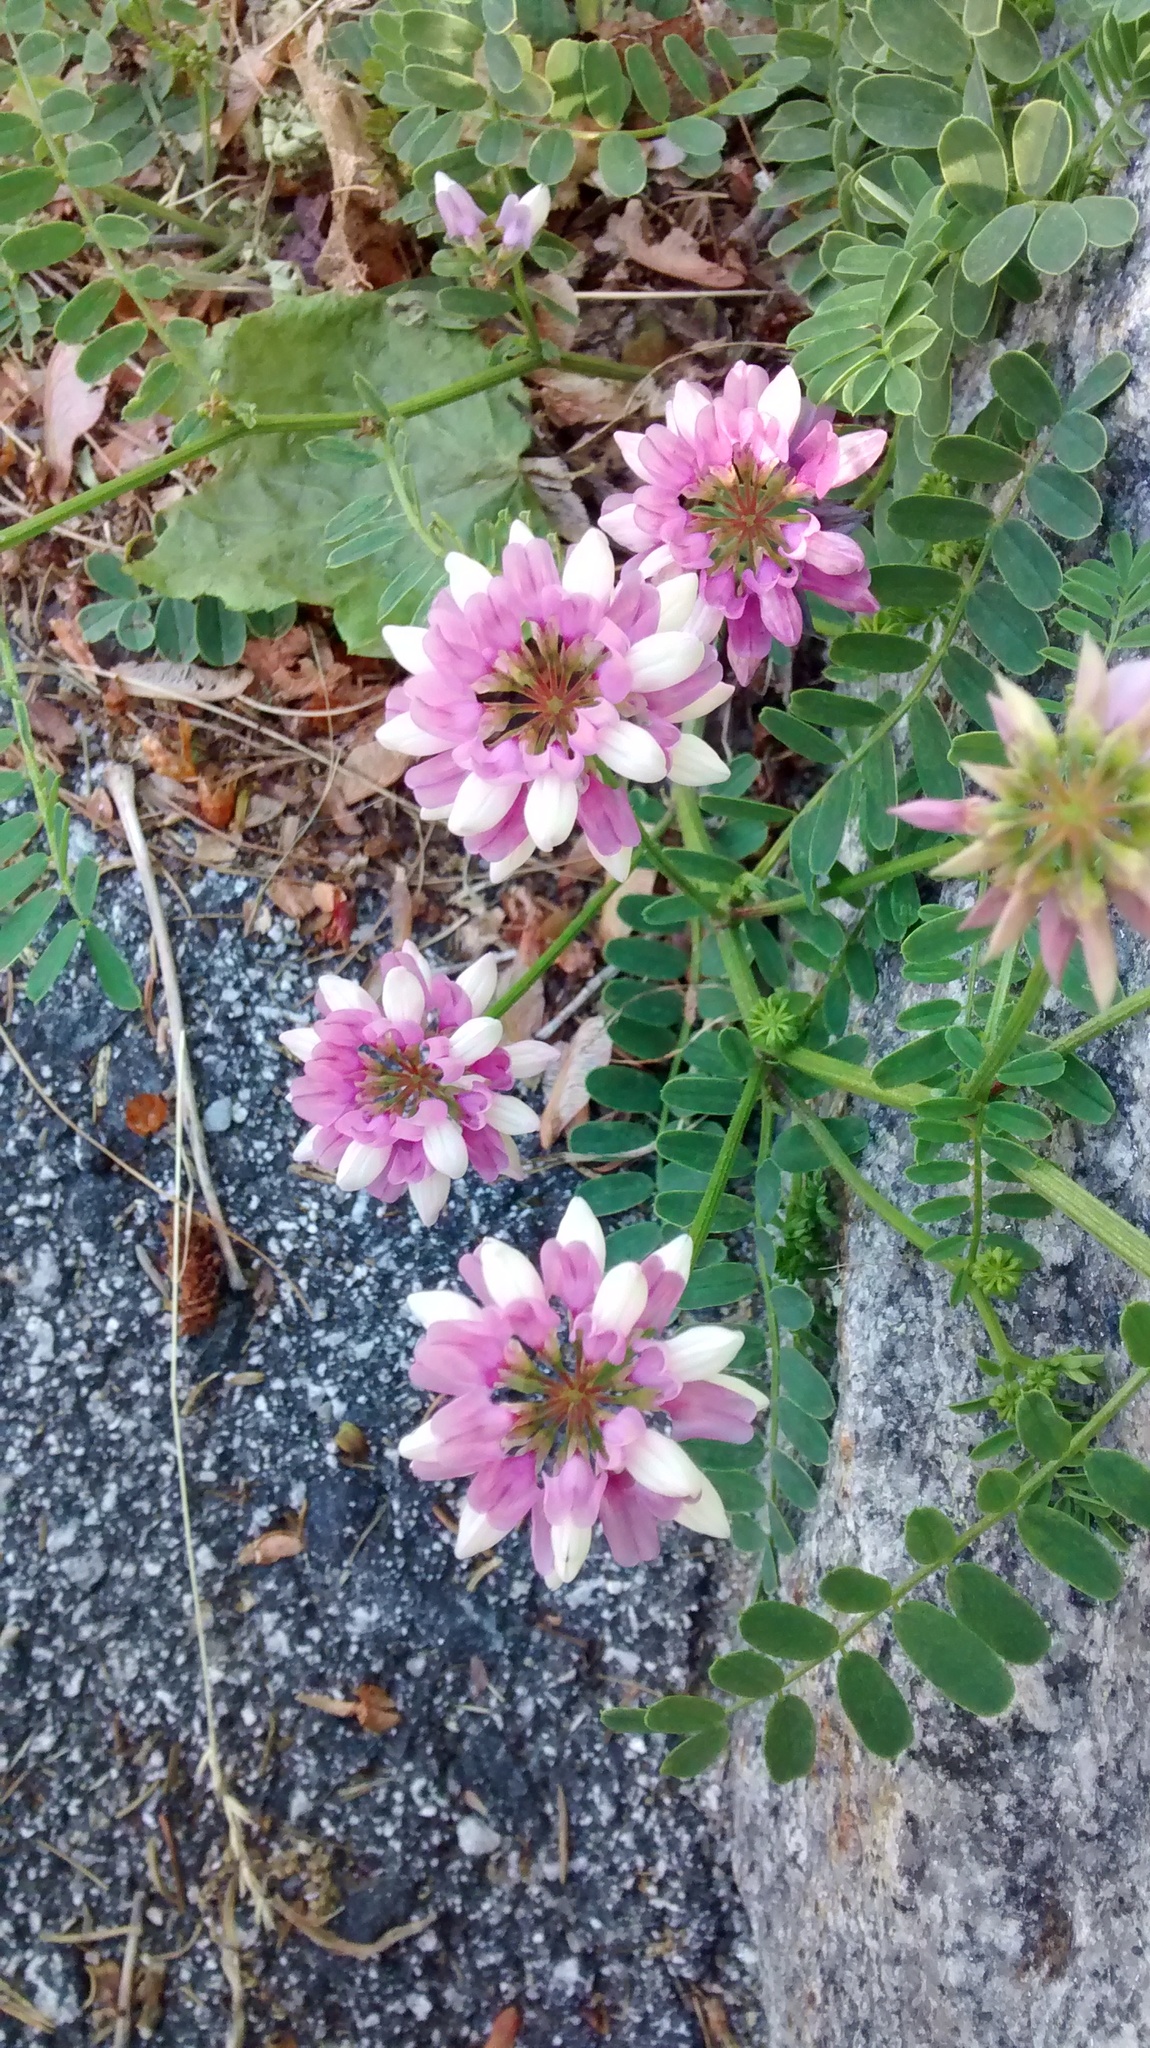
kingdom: Plantae
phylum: Tracheophyta
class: Magnoliopsida
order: Fabales
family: Fabaceae
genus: Coronilla
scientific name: Coronilla varia
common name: Crownvetch
